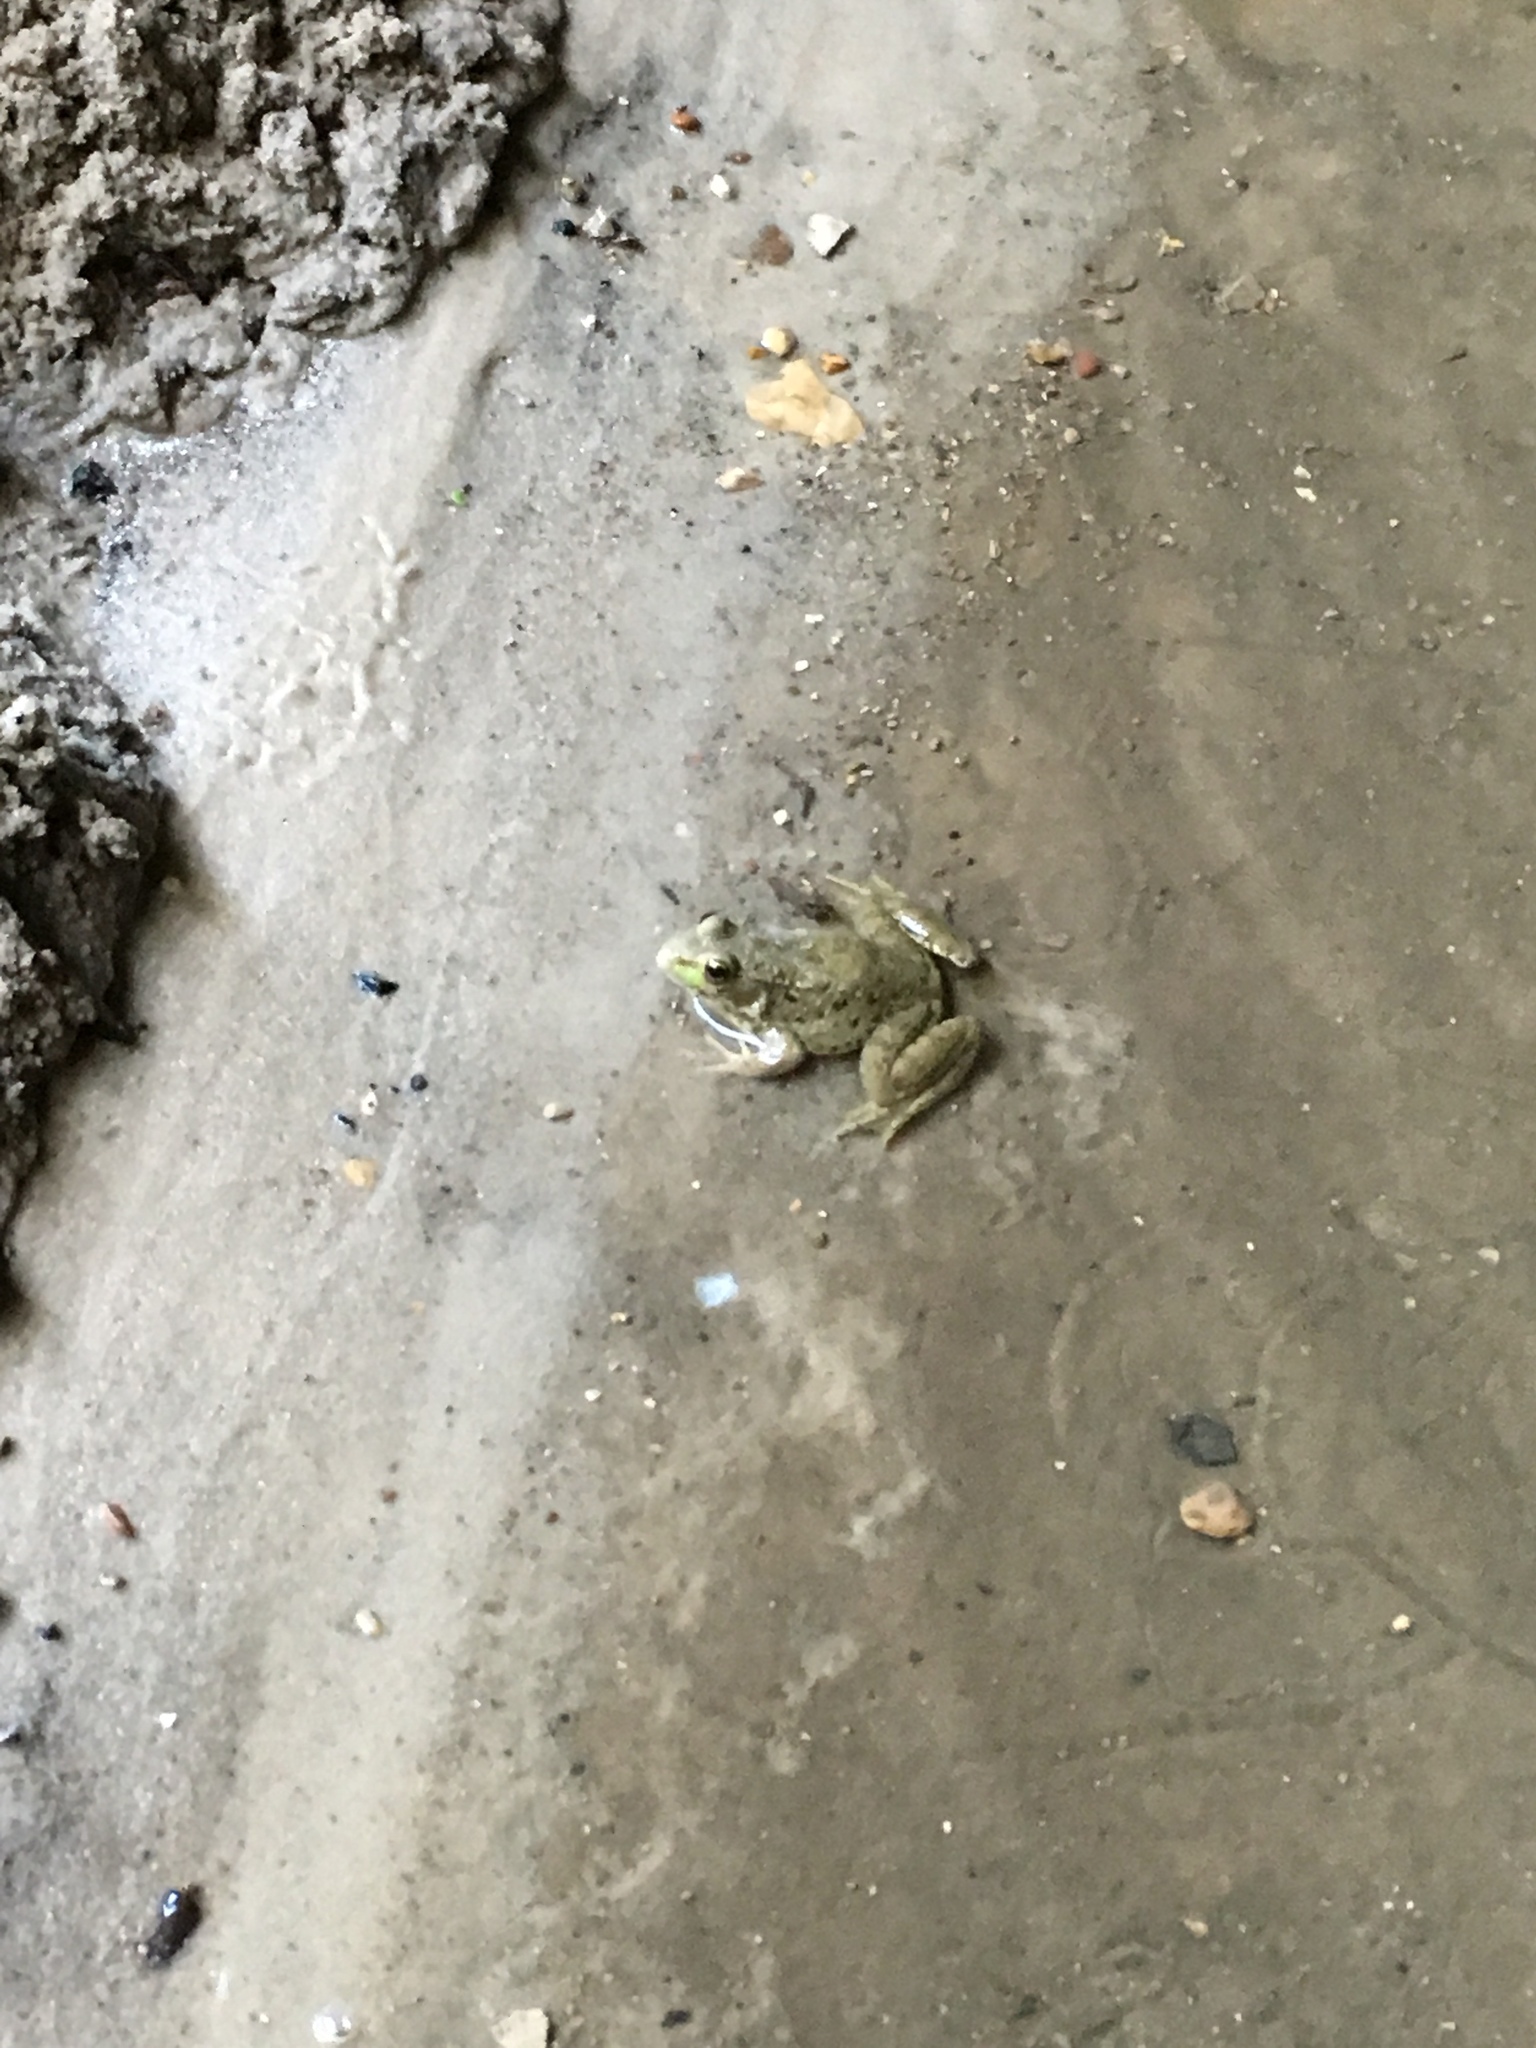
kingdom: Animalia
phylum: Chordata
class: Amphibia
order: Anura
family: Ranidae
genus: Lithobates
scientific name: Lithobates clamitans
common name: Green frog
